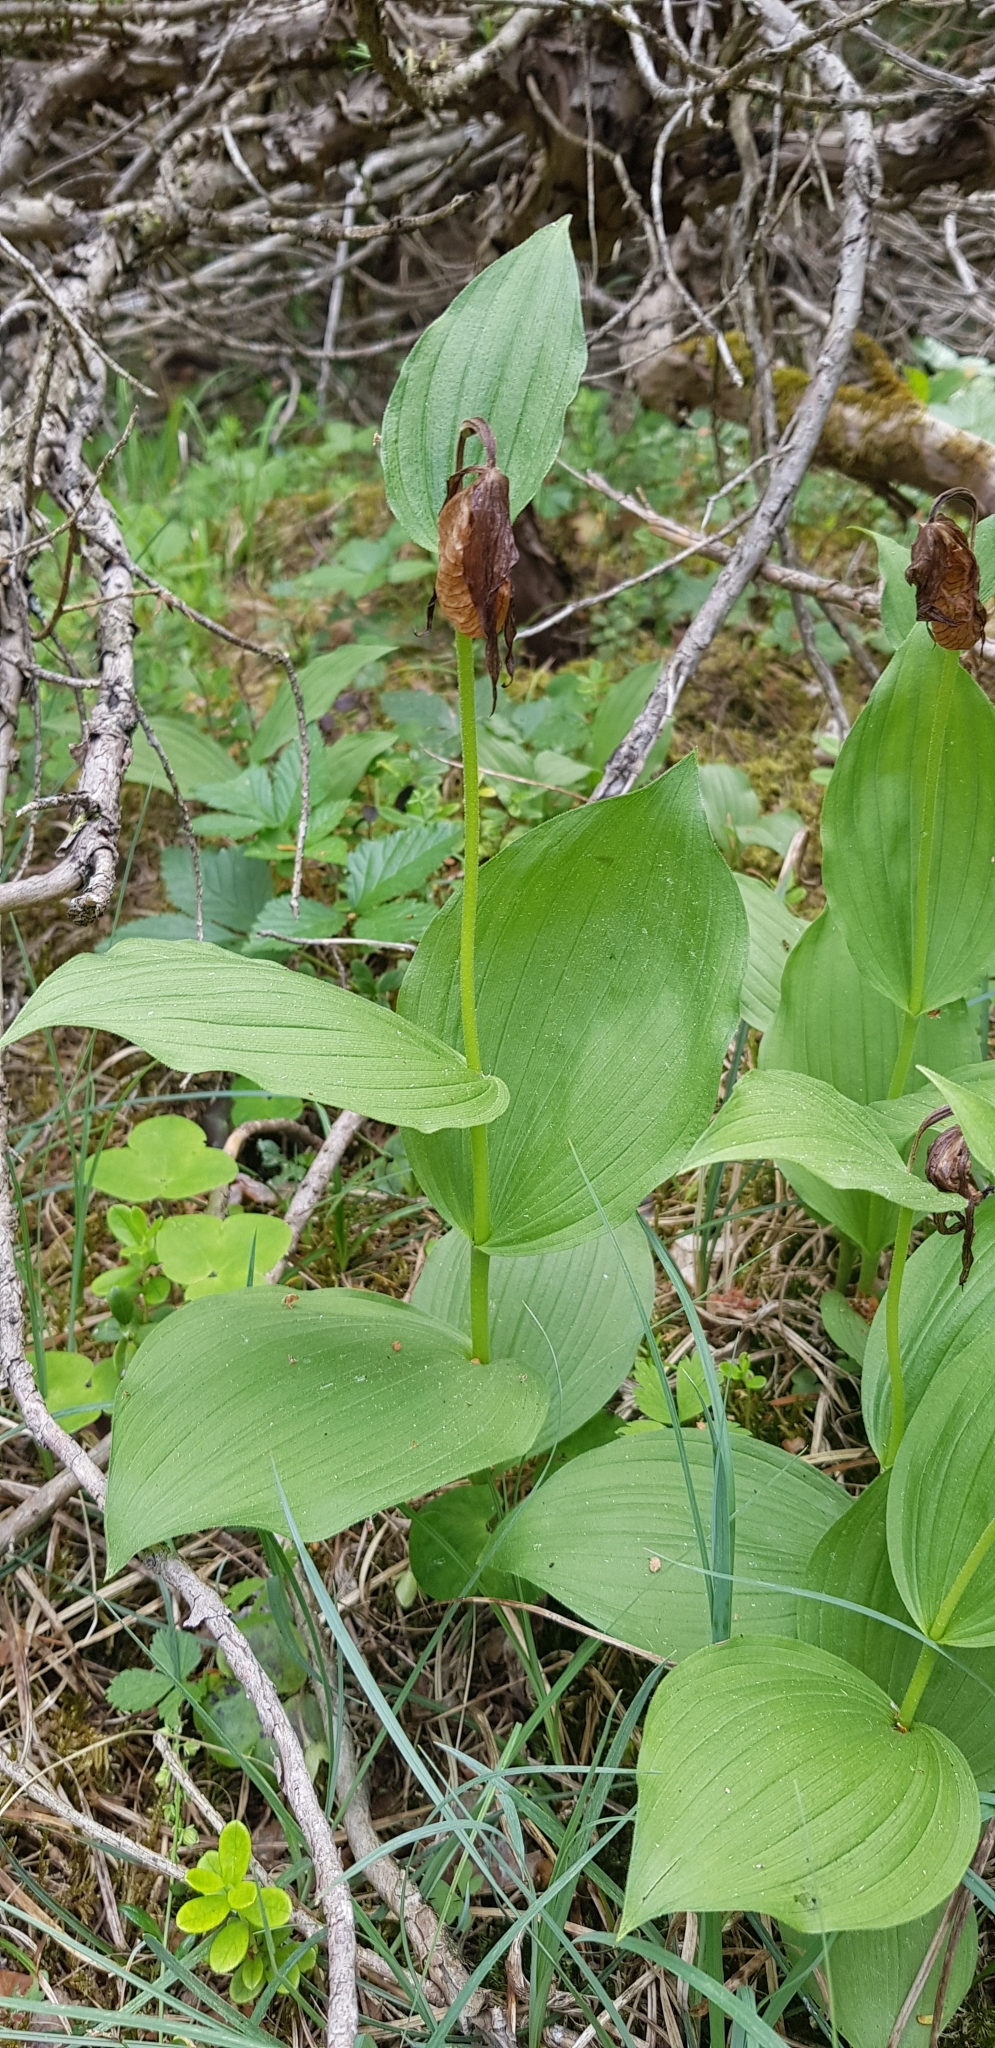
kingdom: Plantae
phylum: Tracheophyta
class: Liliopsida
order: Asparagales
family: Orchidaceae
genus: Cypripedium
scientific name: Cypripedium calceolus
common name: Lady's-slipper
